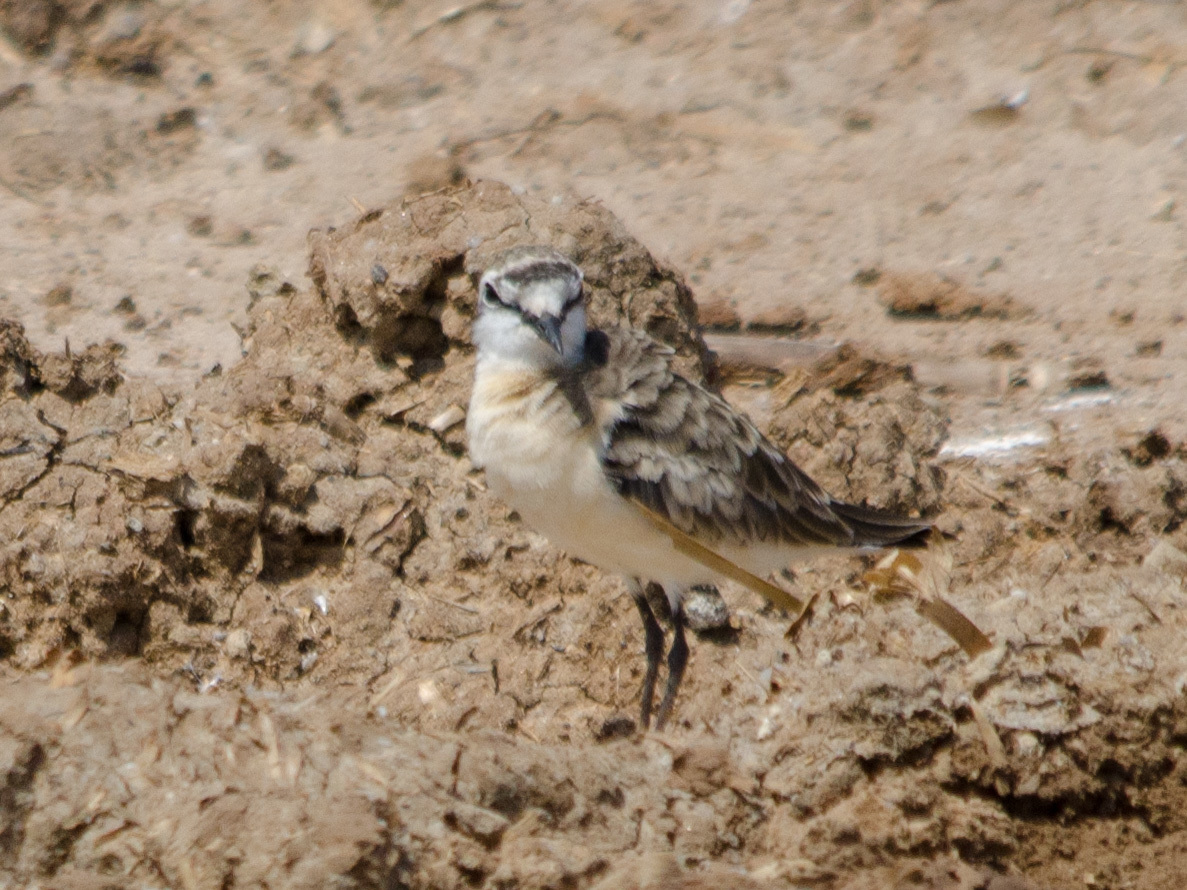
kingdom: Animalia
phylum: Chordata
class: Aves
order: Charadriiformes
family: Charadriidae
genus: Anarhynchus
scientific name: Anarhynchus
